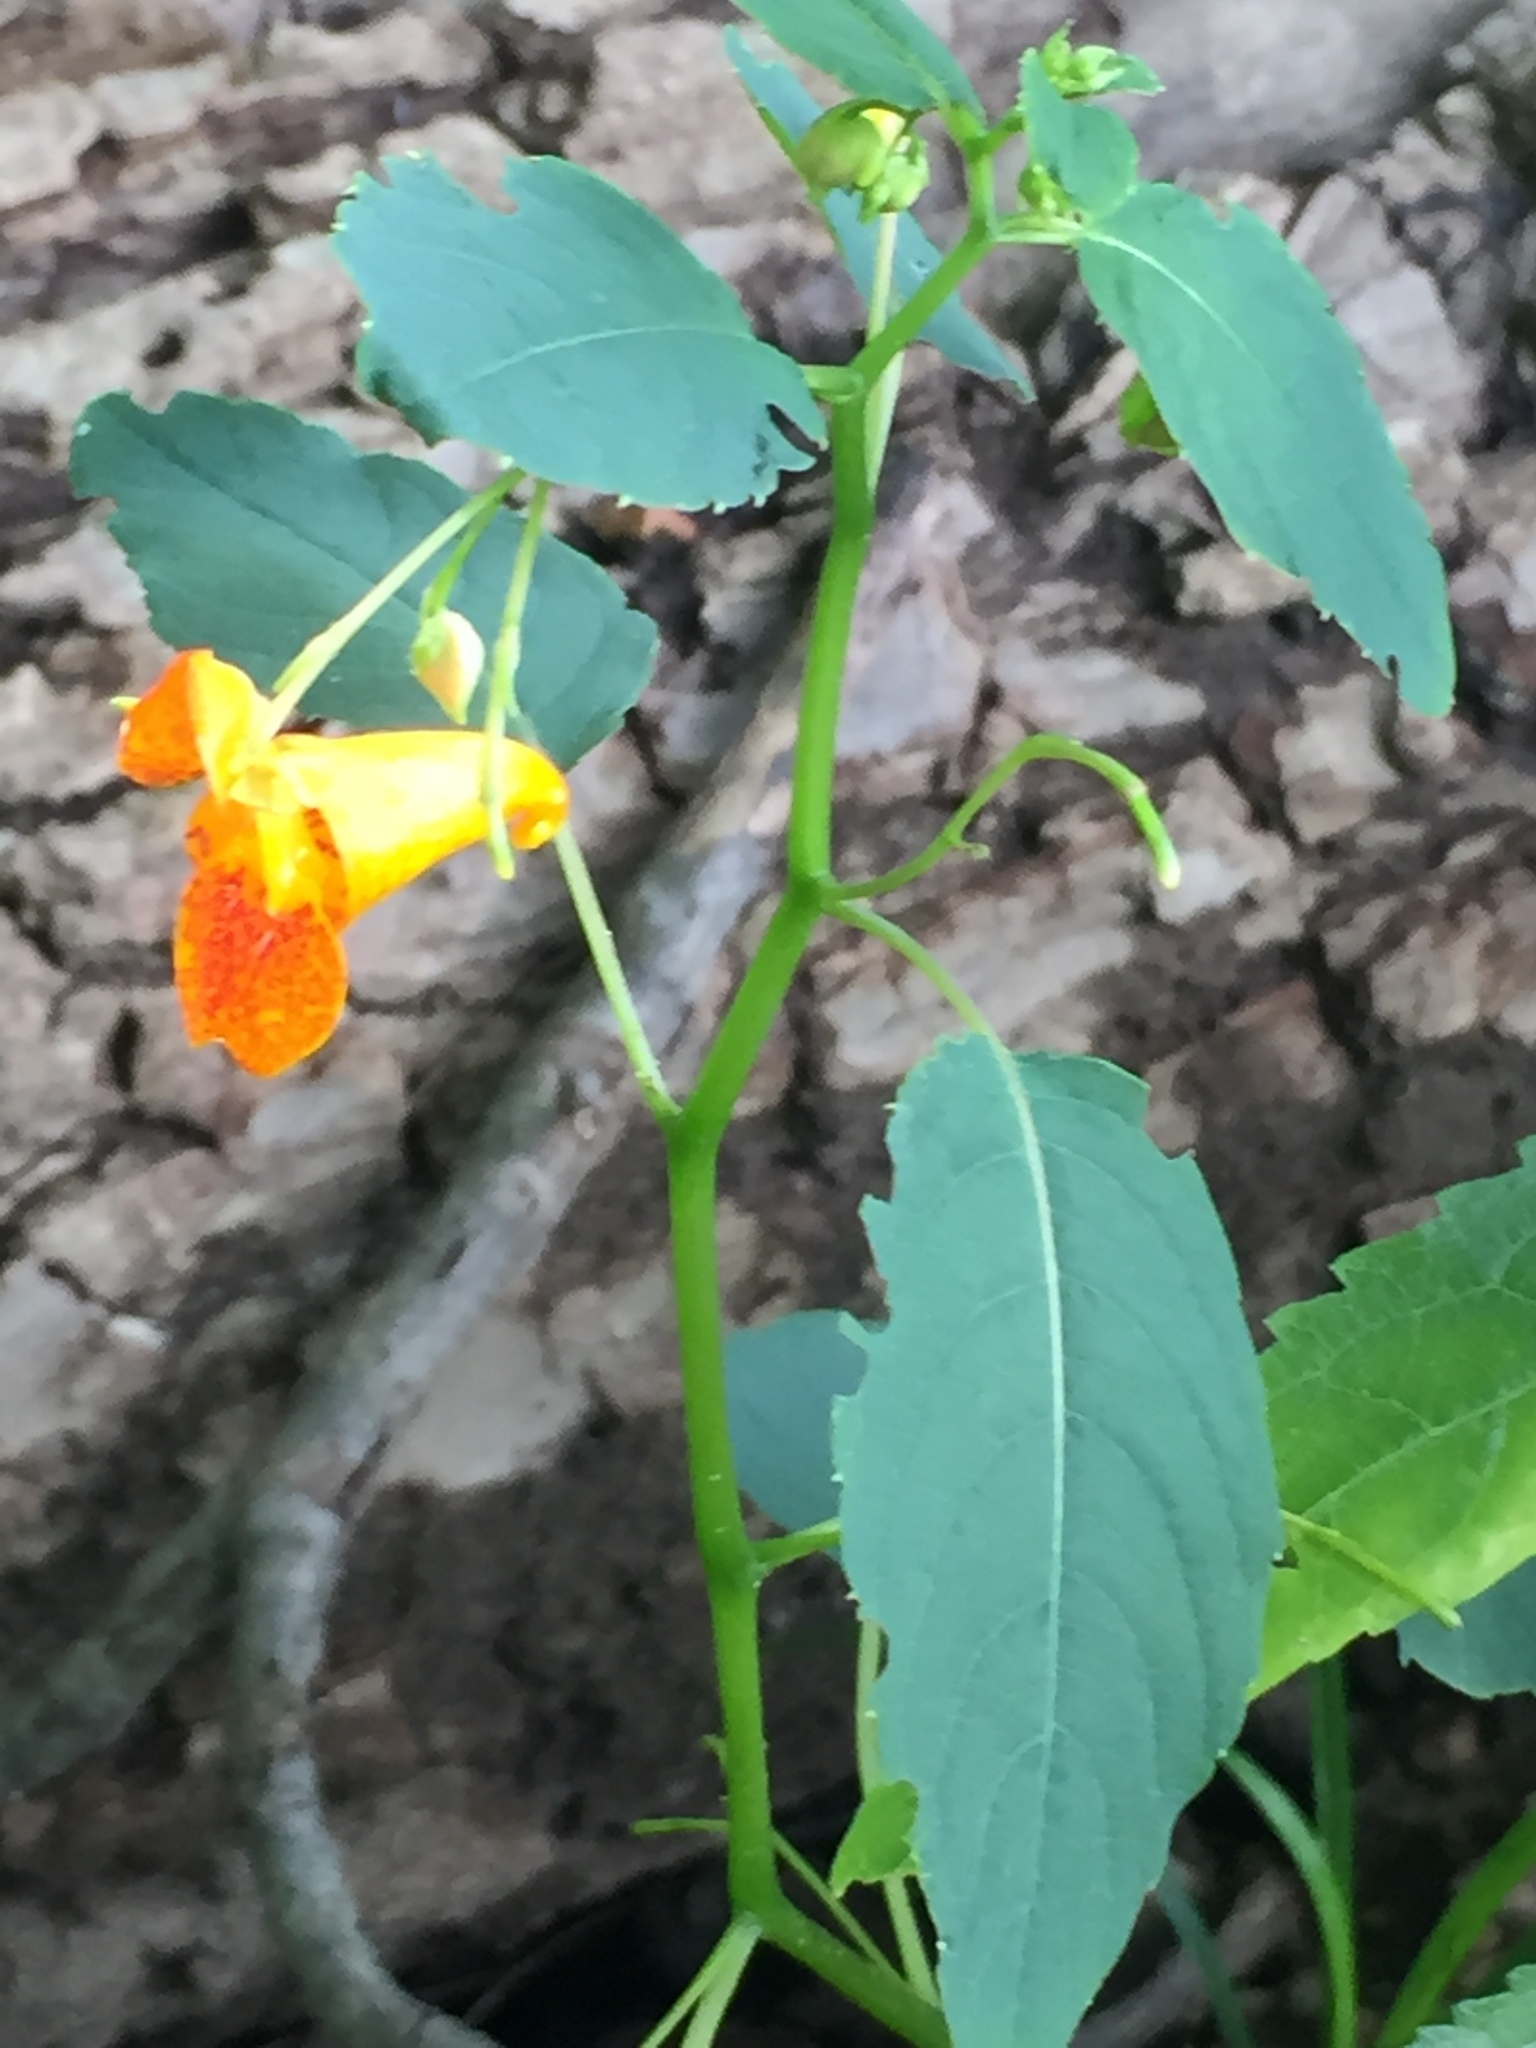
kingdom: Plantae
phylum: Tracheophyta
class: Magnoliopsida
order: Ericales
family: Balsaminaceae
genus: Impatiens
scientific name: Impatiens capensis
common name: Orange balsam
